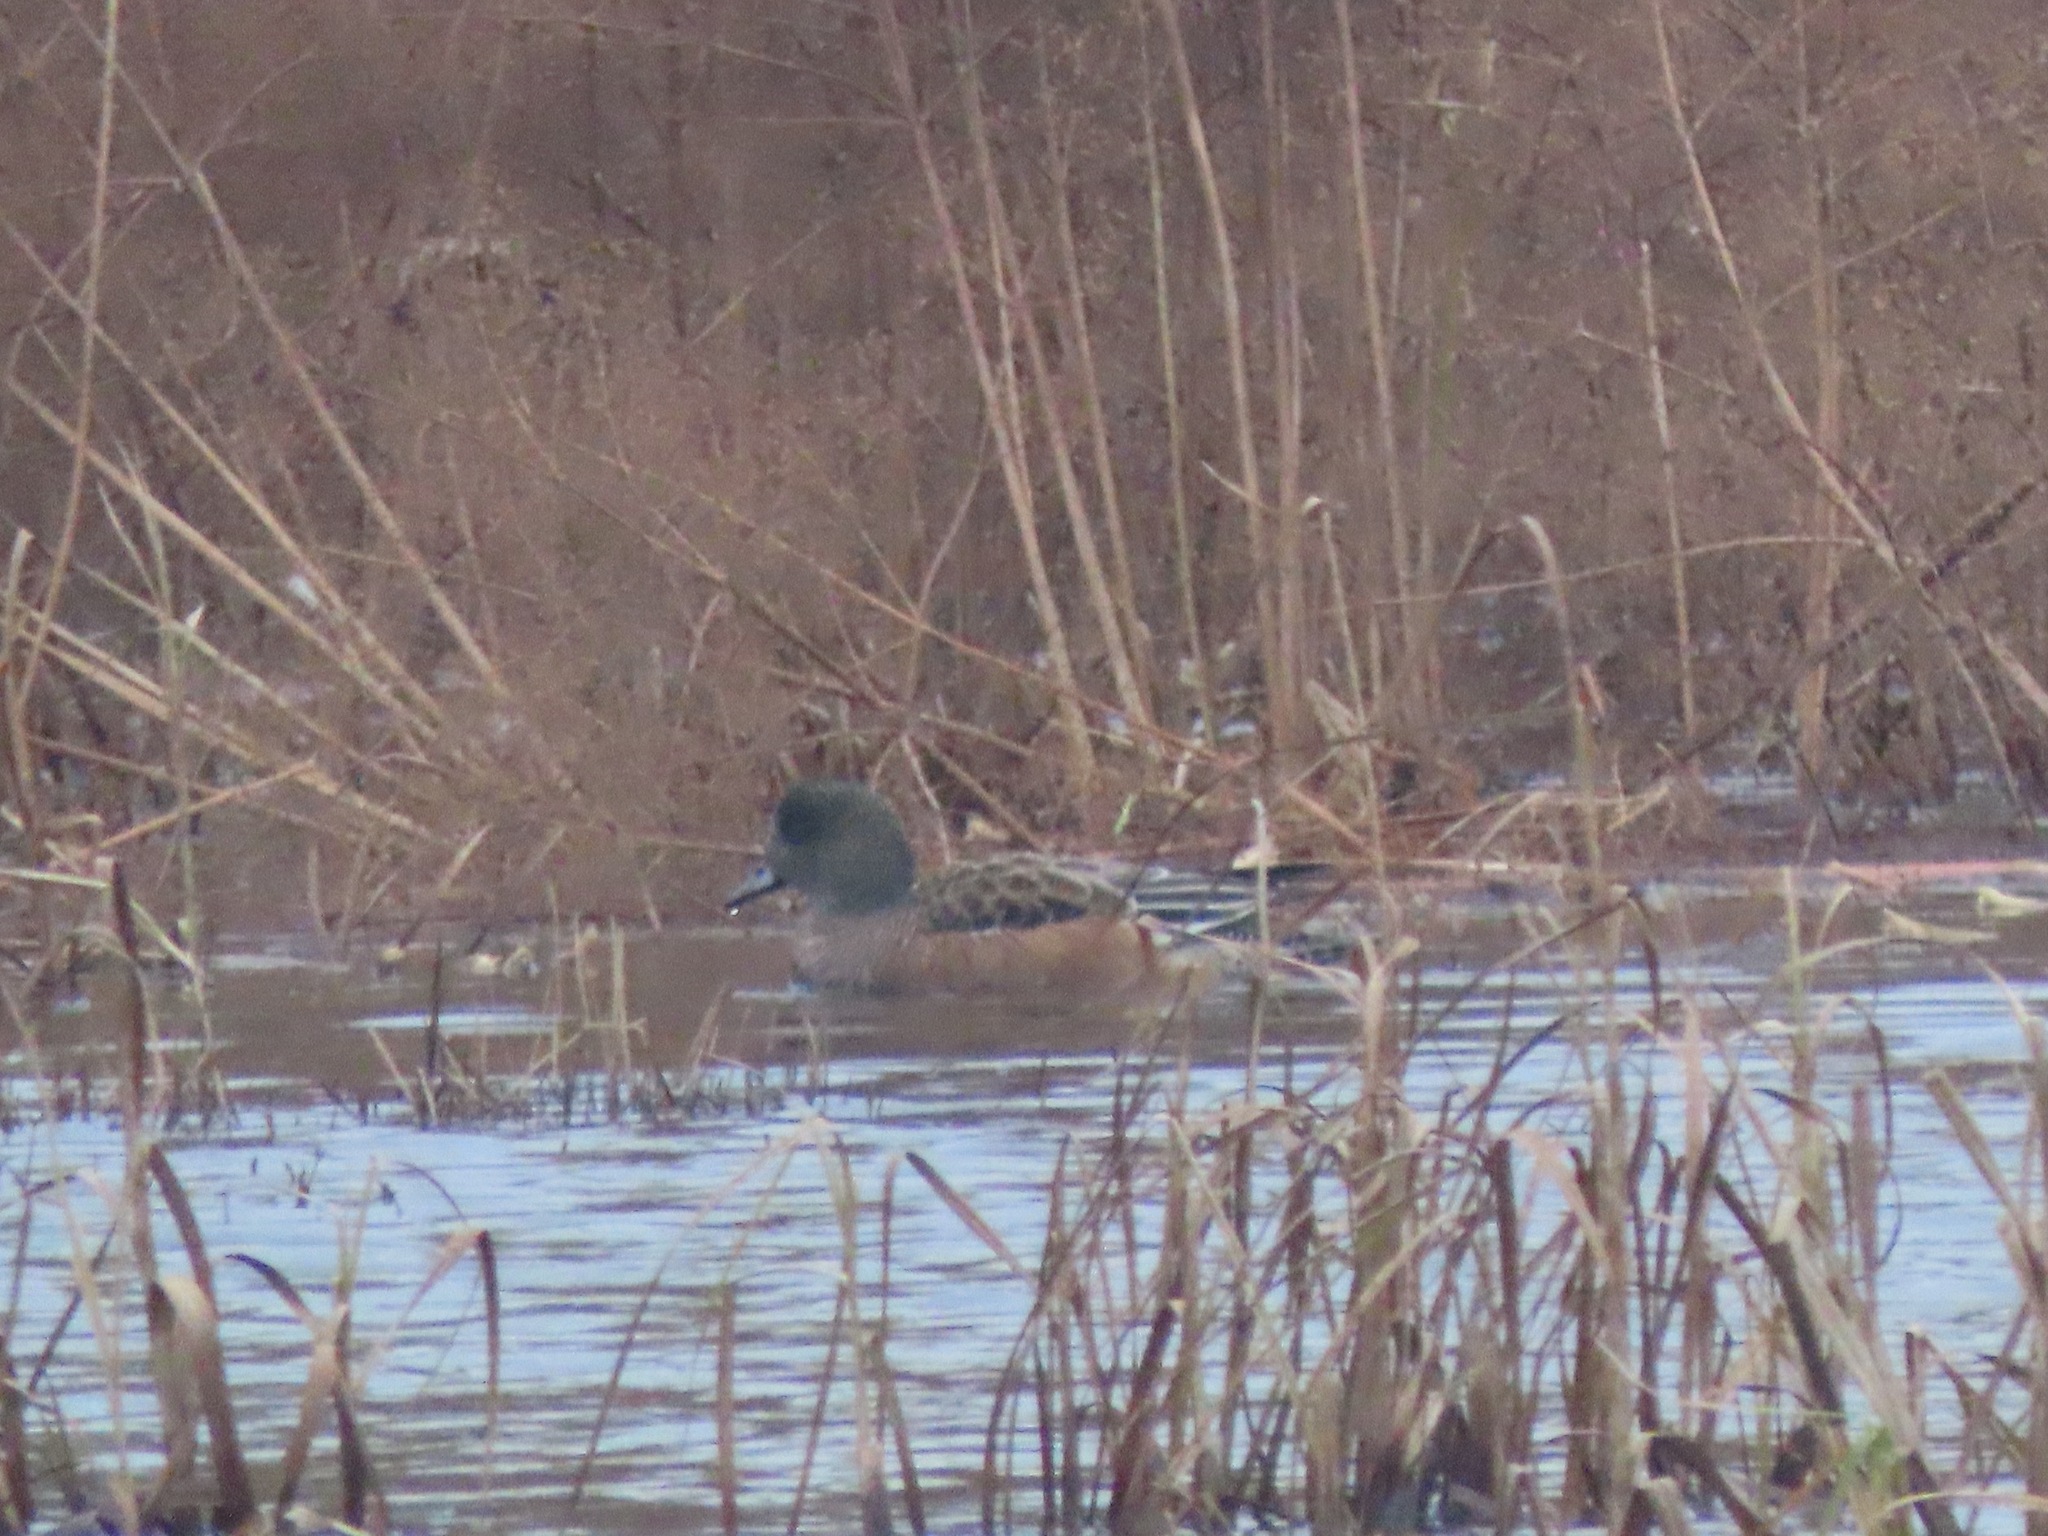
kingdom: Animalia
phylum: Chordata
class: Aves
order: Anseriformes
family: Anatidae
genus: Mareca
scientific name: Mareca americana
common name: American wigeon
